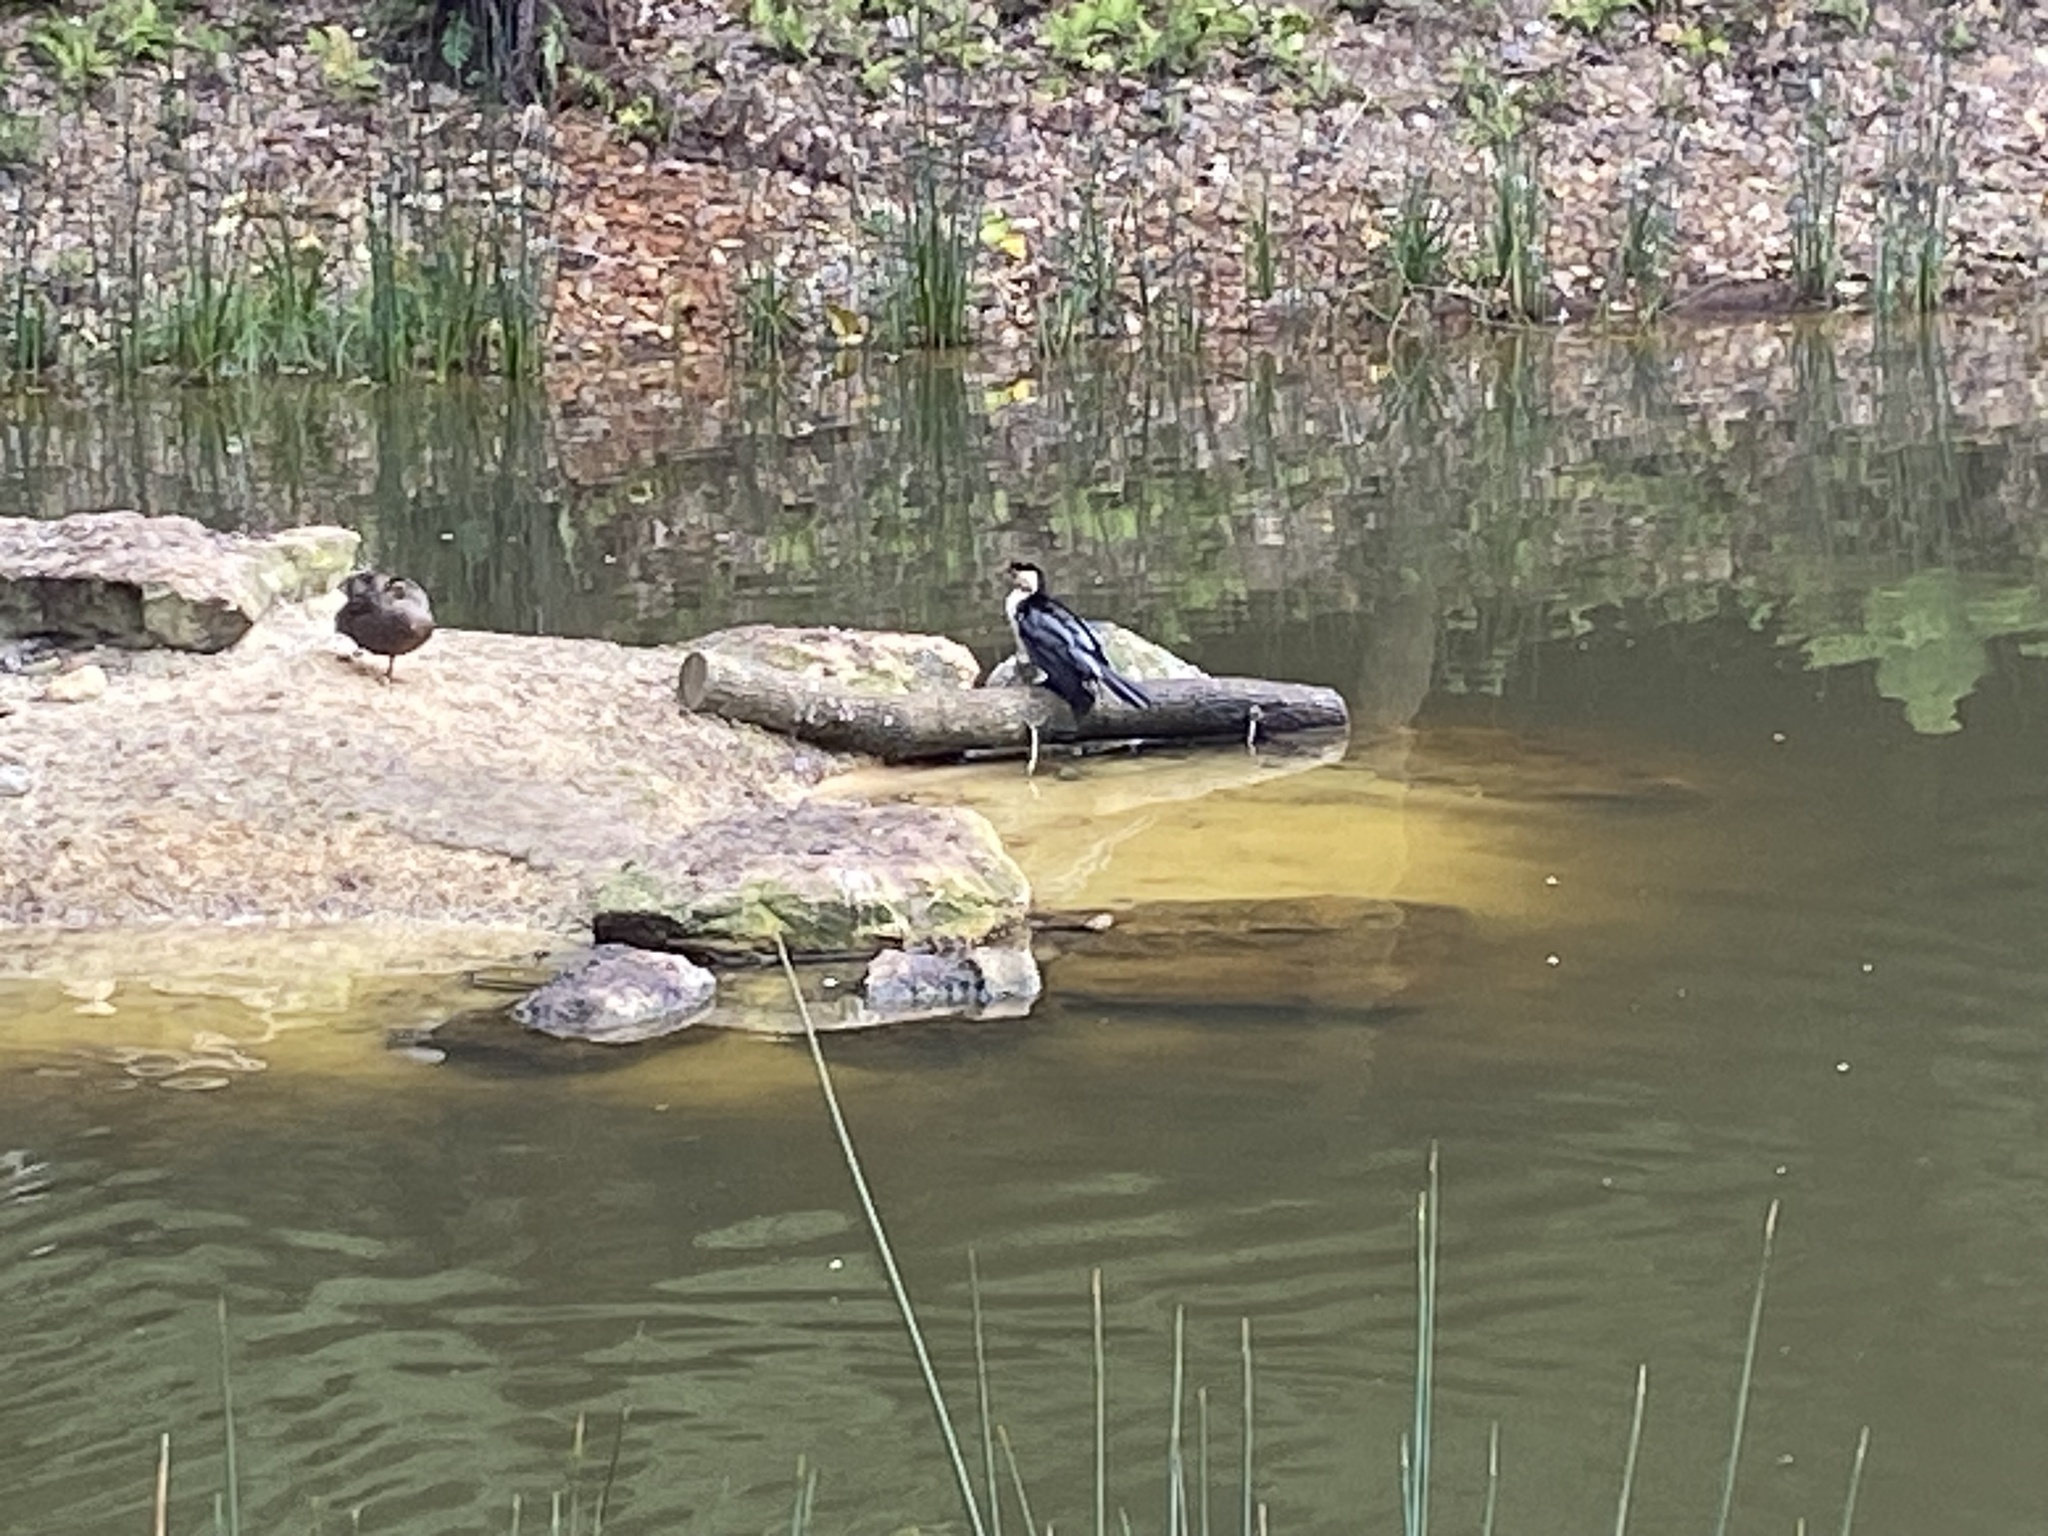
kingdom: Animalia
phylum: Chordata
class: Aves
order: Suliformes
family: Phalacrocoracidae
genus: Microcarbo
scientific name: Microcarbo melanoleucos
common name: Little pied cormorant
